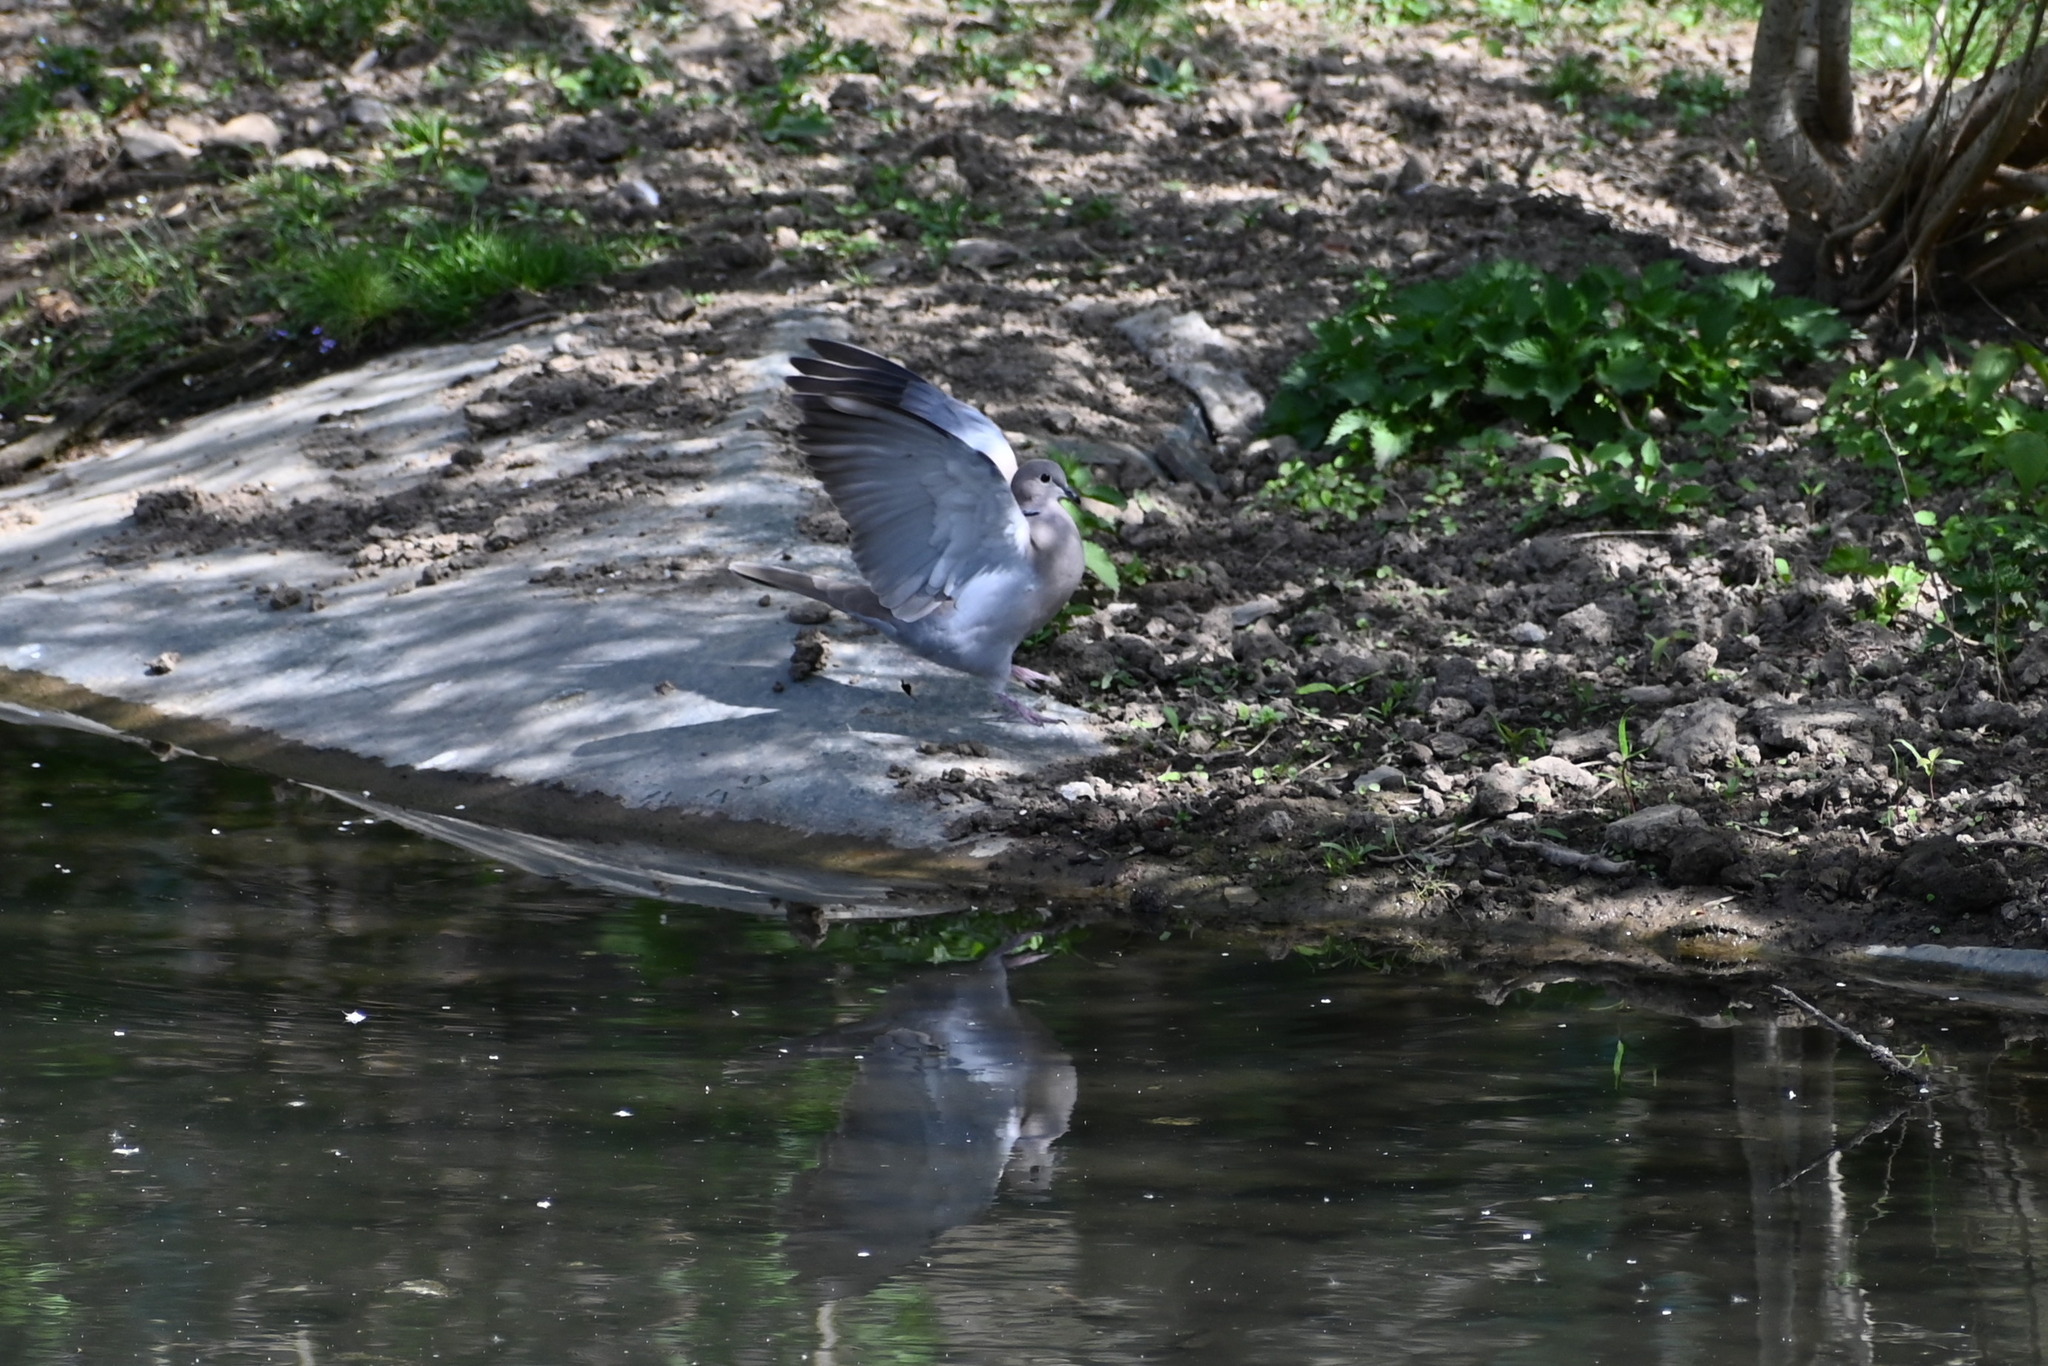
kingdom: Animalia
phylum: Chordata
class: Aves
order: Columbiformes
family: Columbidae
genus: Streptopelia
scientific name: Streptopelia decaocto
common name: Eurasian collared dove
